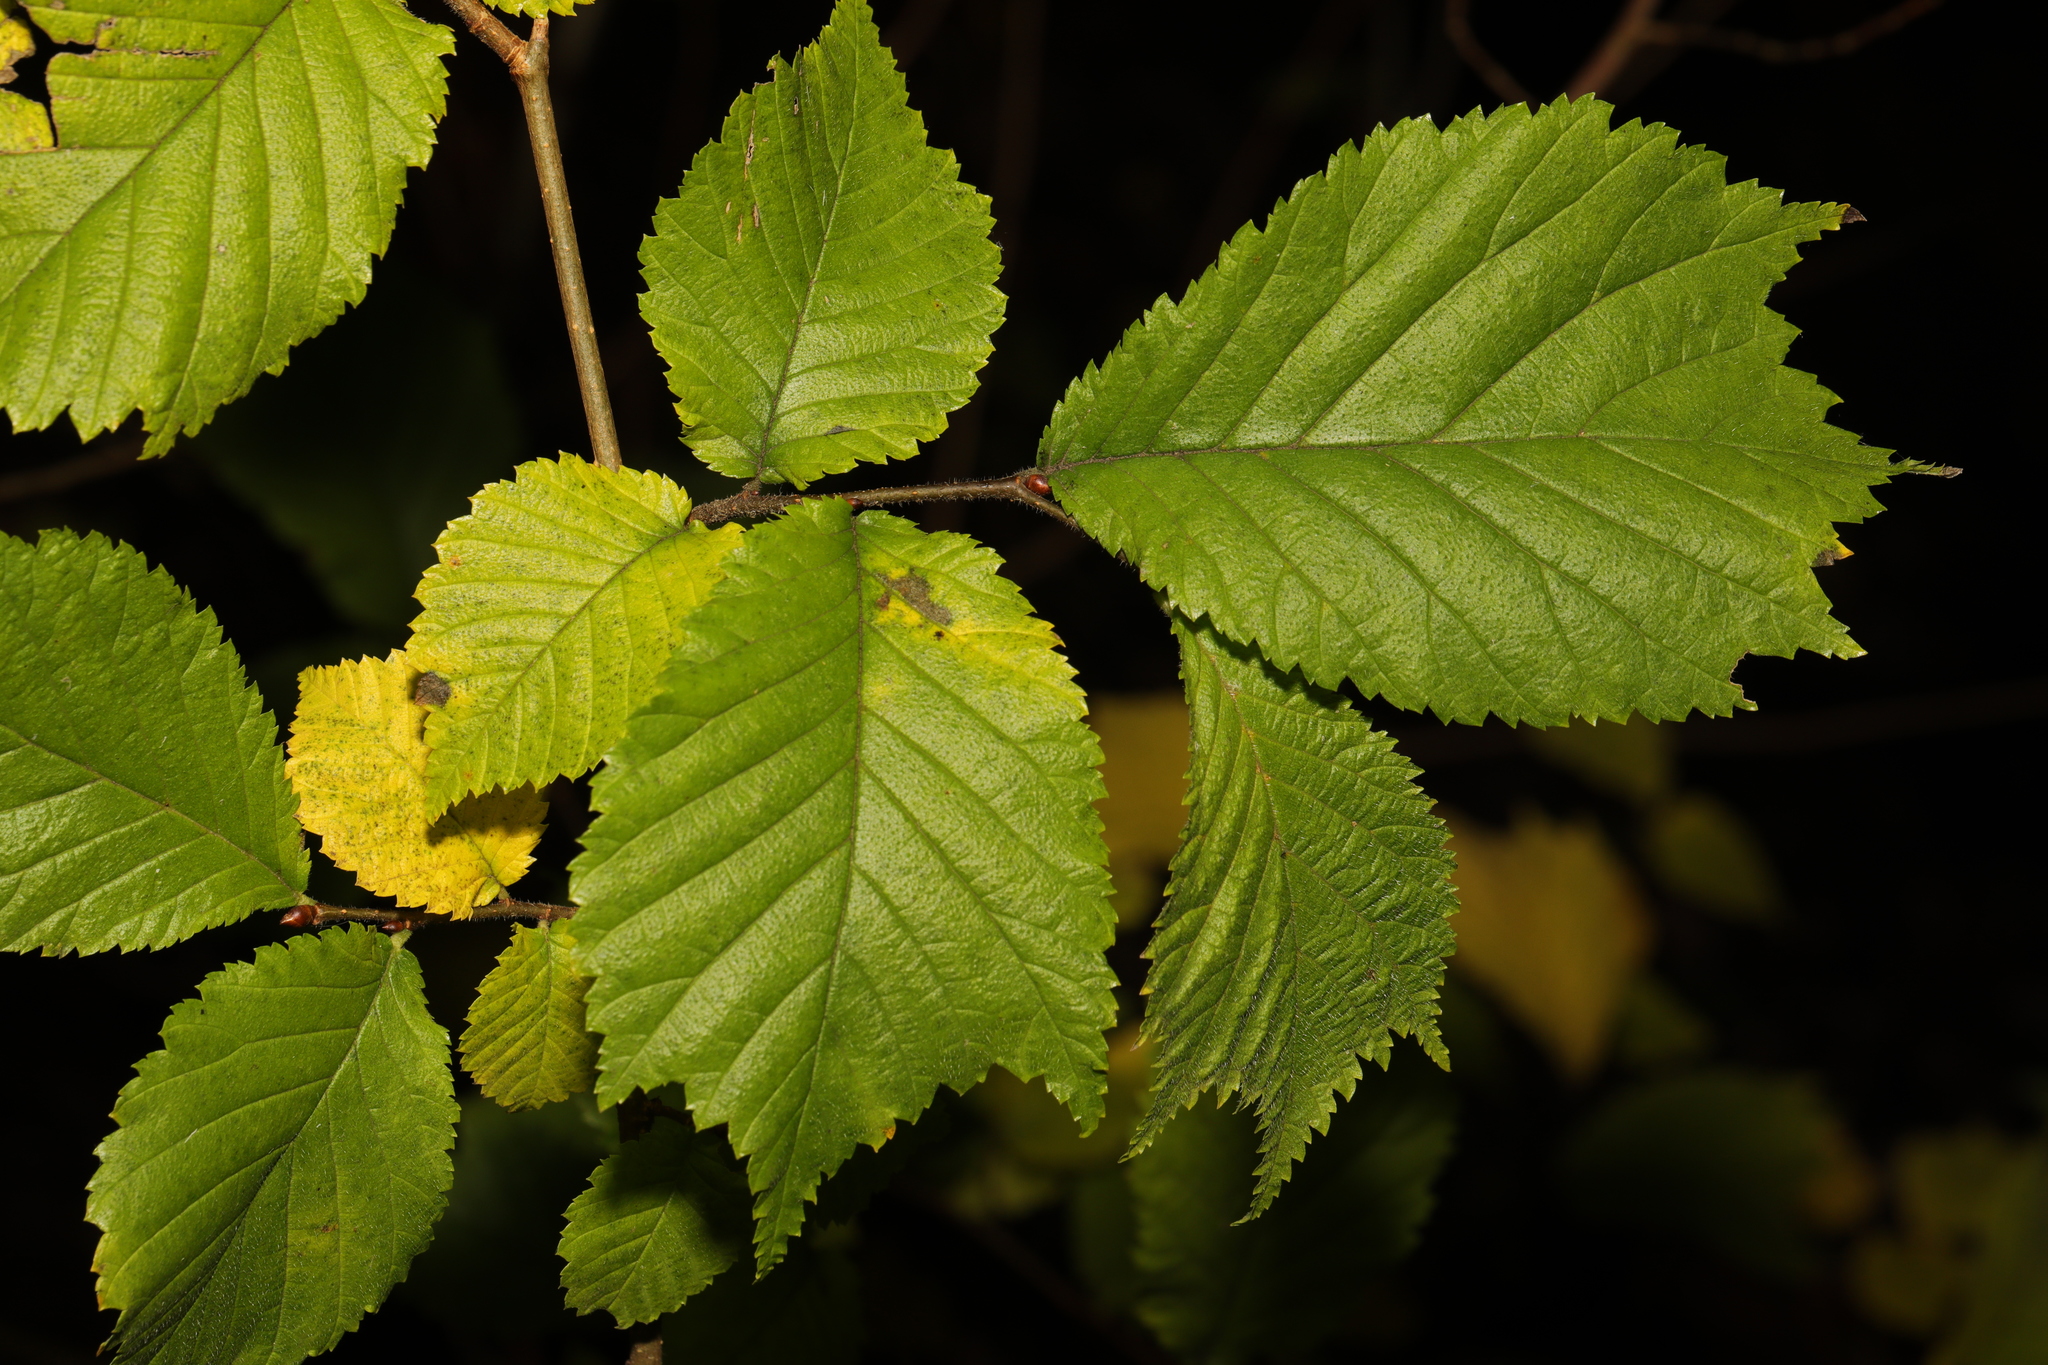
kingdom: Plantae
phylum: Tracheophyta
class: Magnoliopsida
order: Rosales
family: Ulmaceae
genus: Ulmus
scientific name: Ulmus glabra
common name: Wych elm
